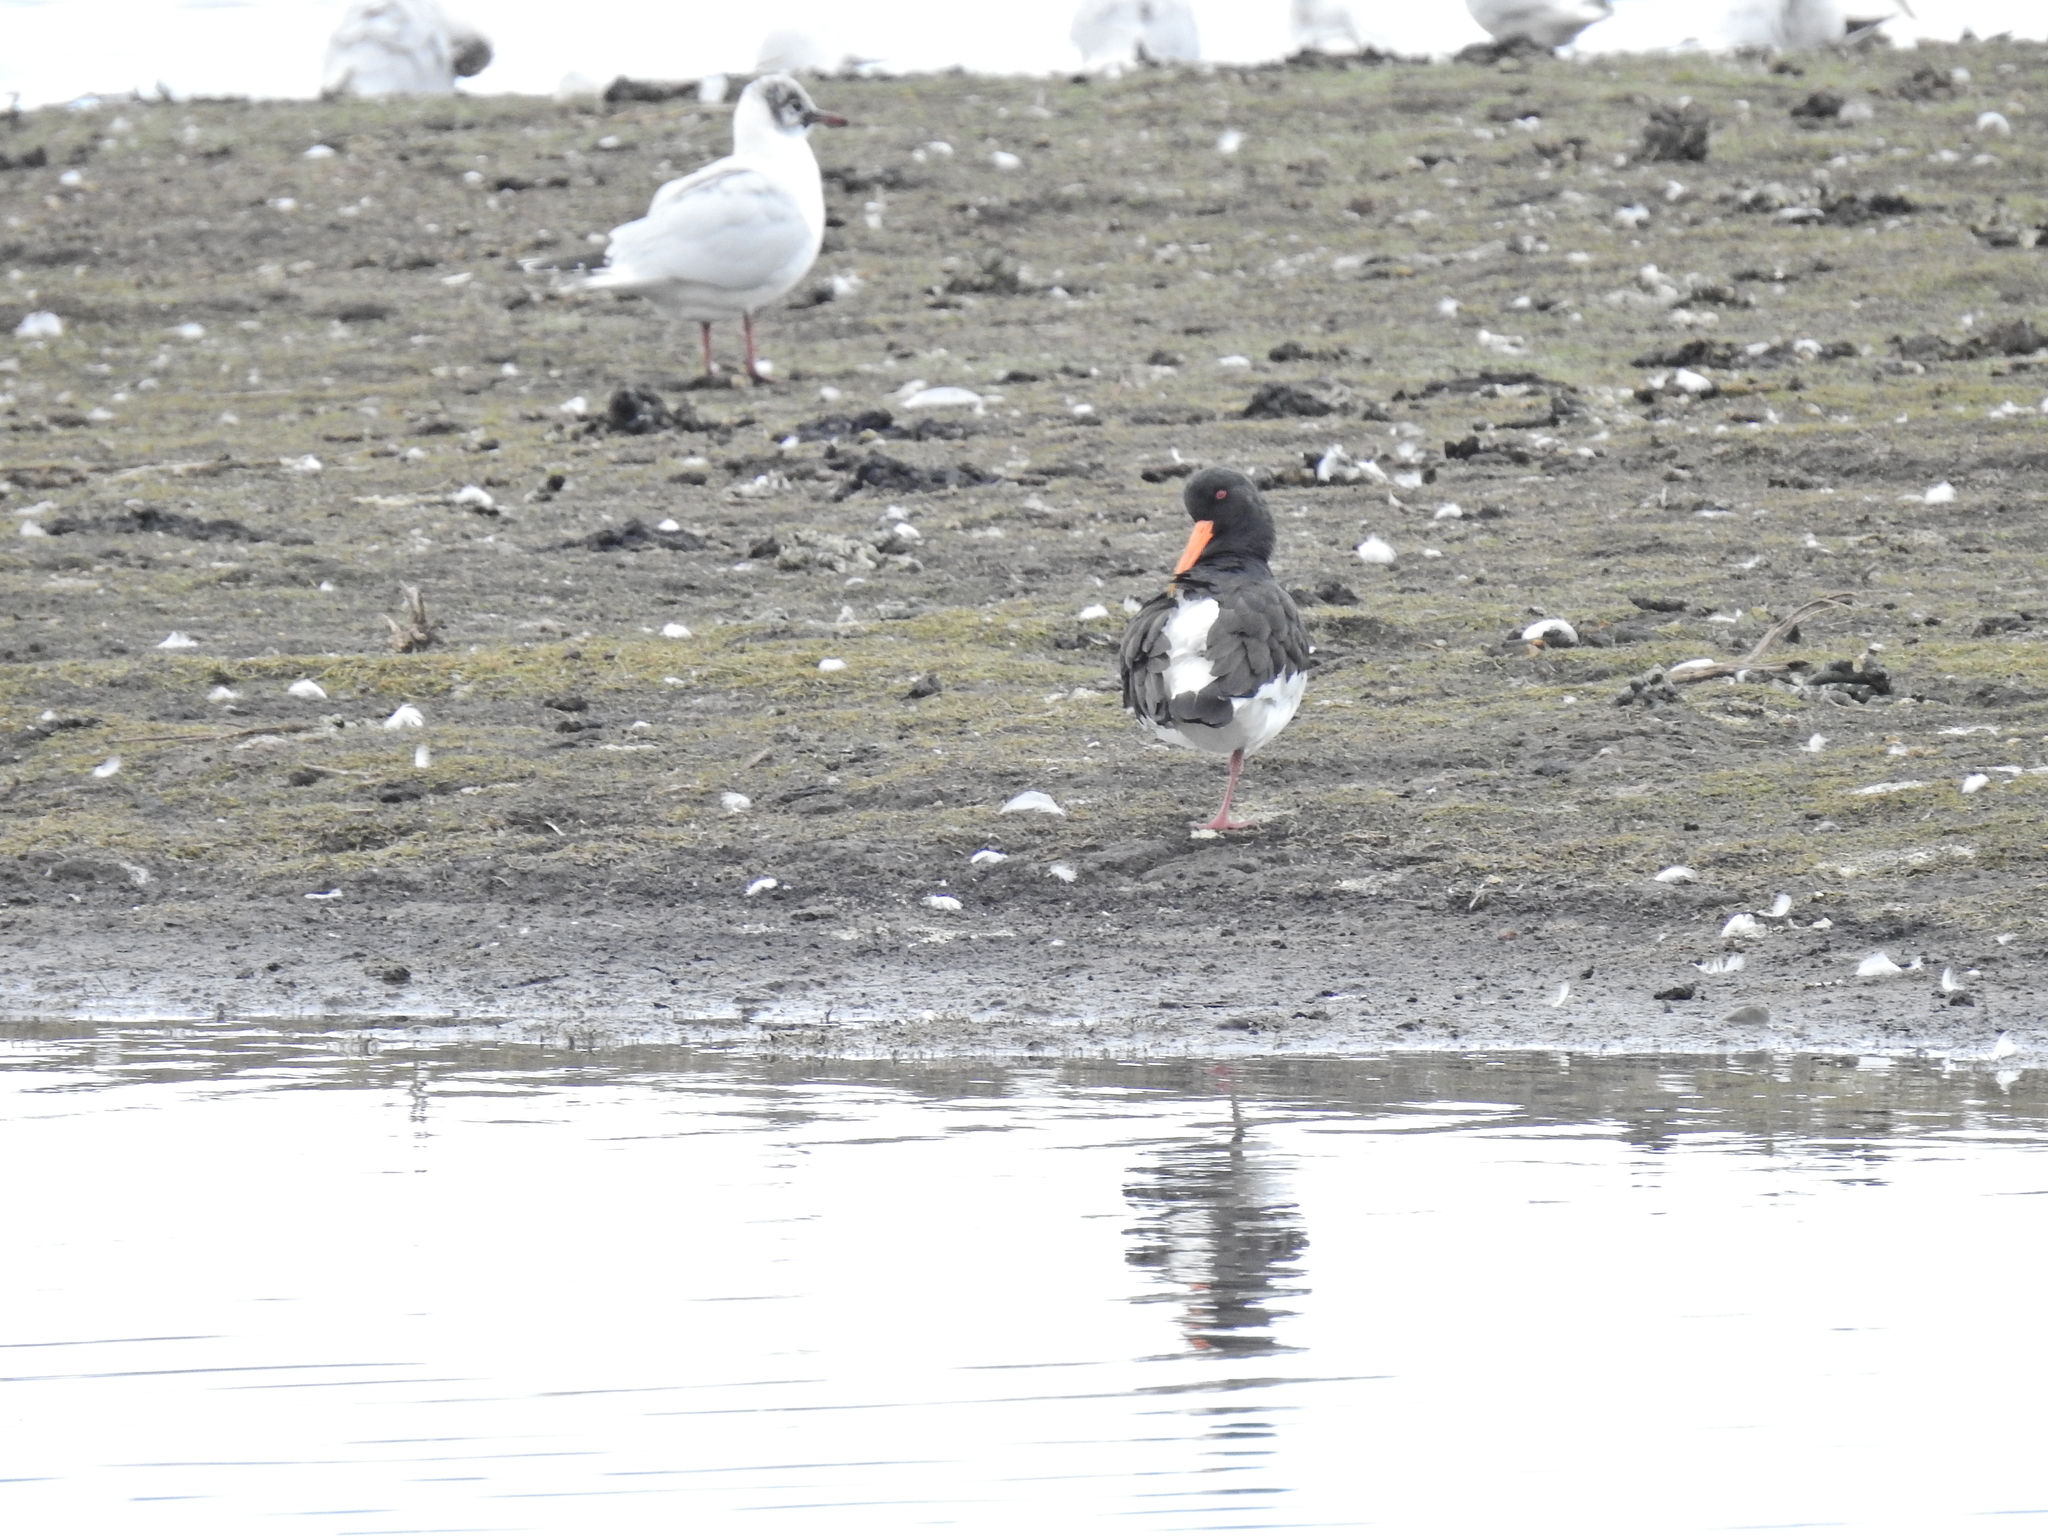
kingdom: Animalia
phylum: Chordata
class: Aves
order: Charadriiformes
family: Haematopodidae
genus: Haematopus
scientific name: Haematopus ostralegus
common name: Eurasian oystercatcher
